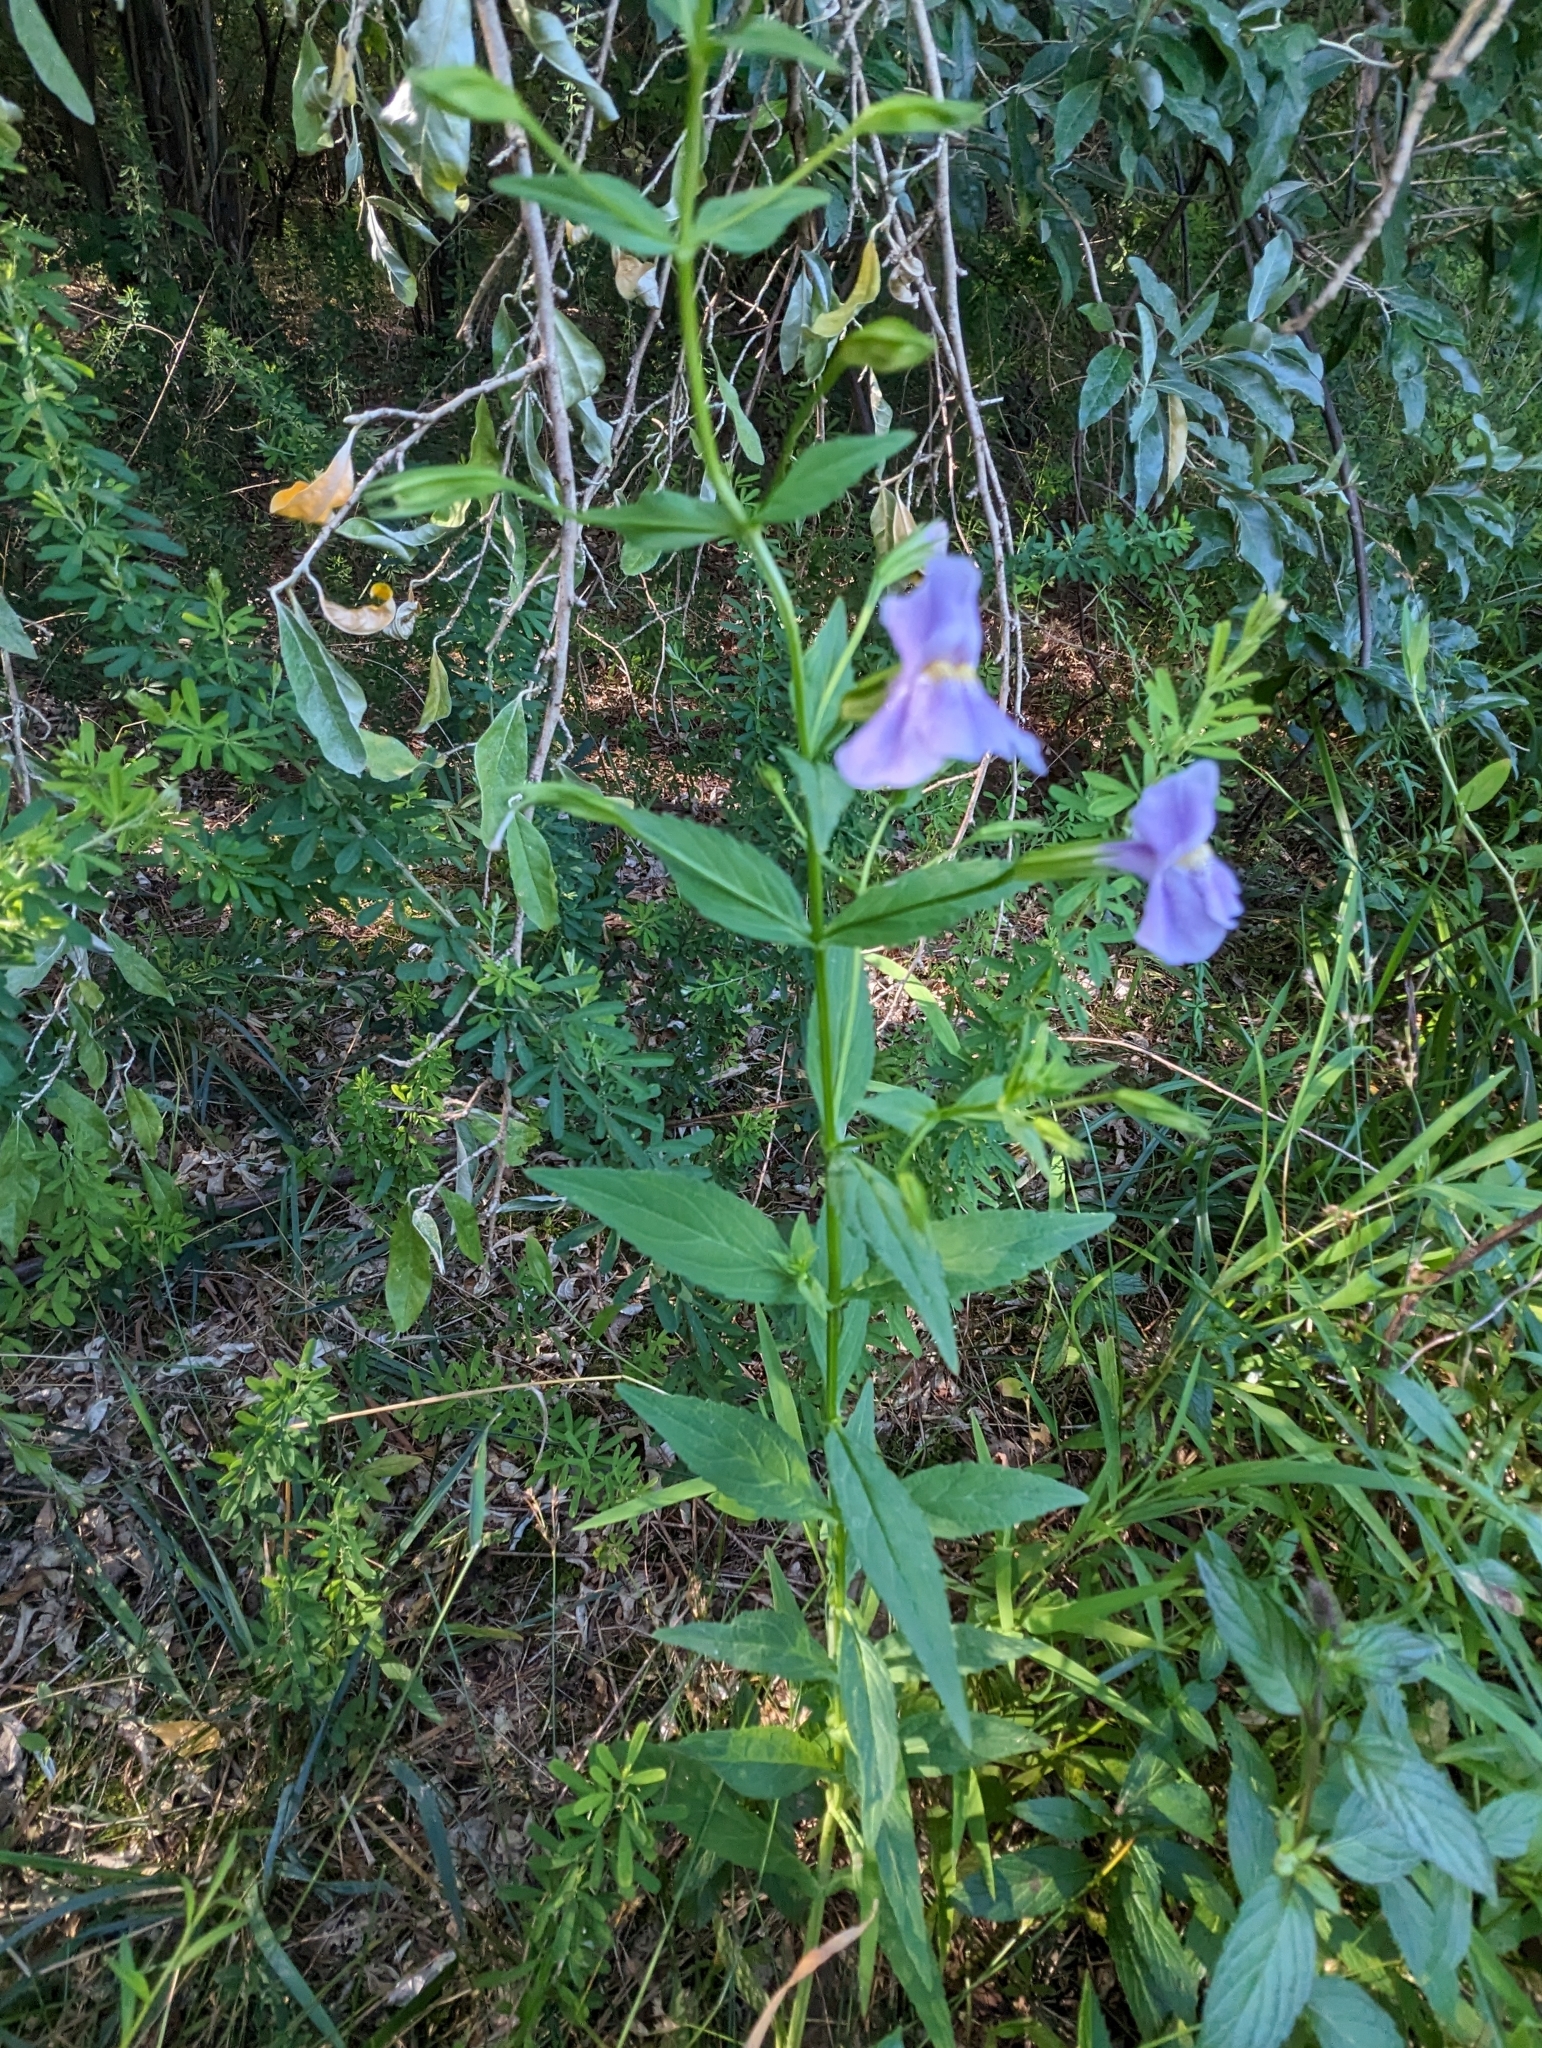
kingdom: Plantae
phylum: Tracheophyta
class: Magnoliopsida
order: Lamiales
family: Phrymaceae
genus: Mimulus
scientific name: Mimulus ringens
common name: Allegheny monkeyflower
